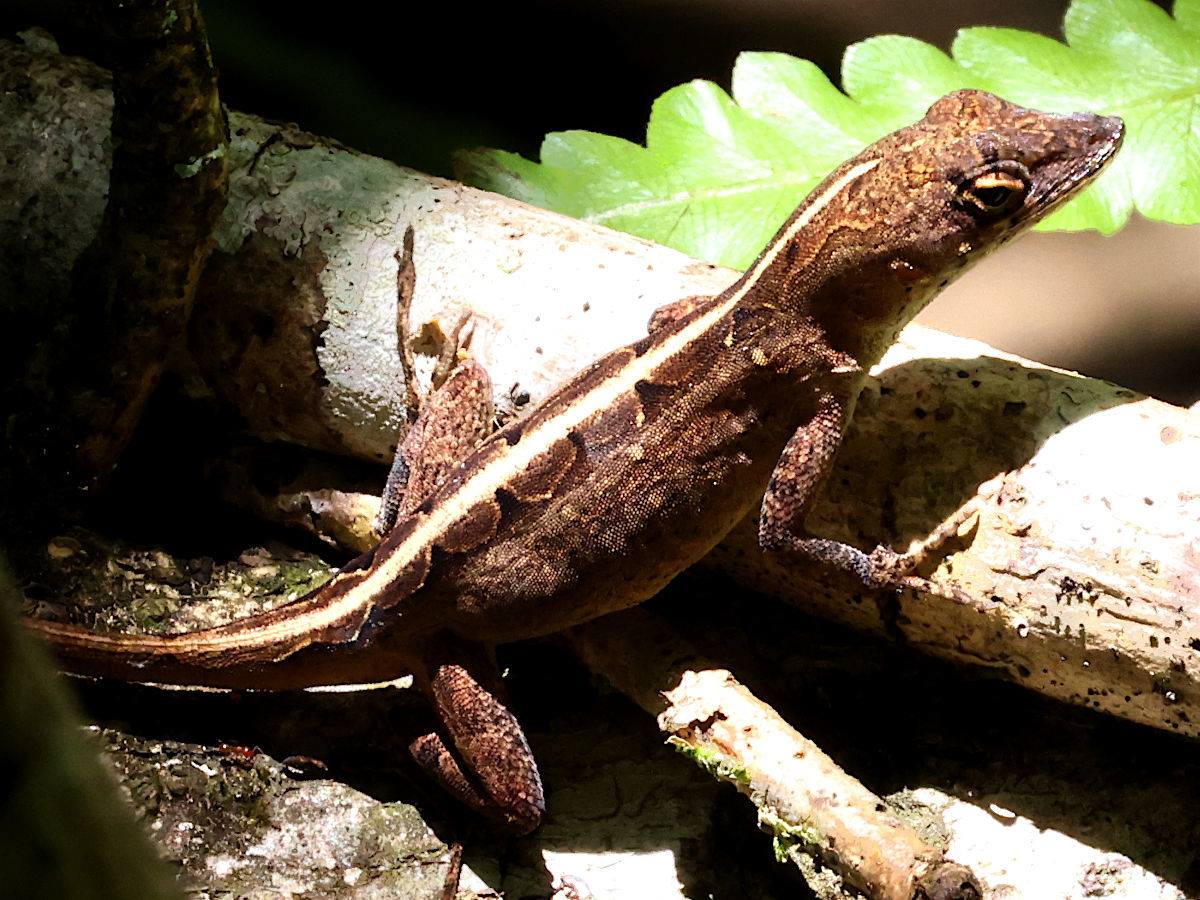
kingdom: Animalia
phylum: Chordata
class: Squamata
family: Dactyloidae
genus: Anolis
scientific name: Anolis sagrei
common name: Brown anole
